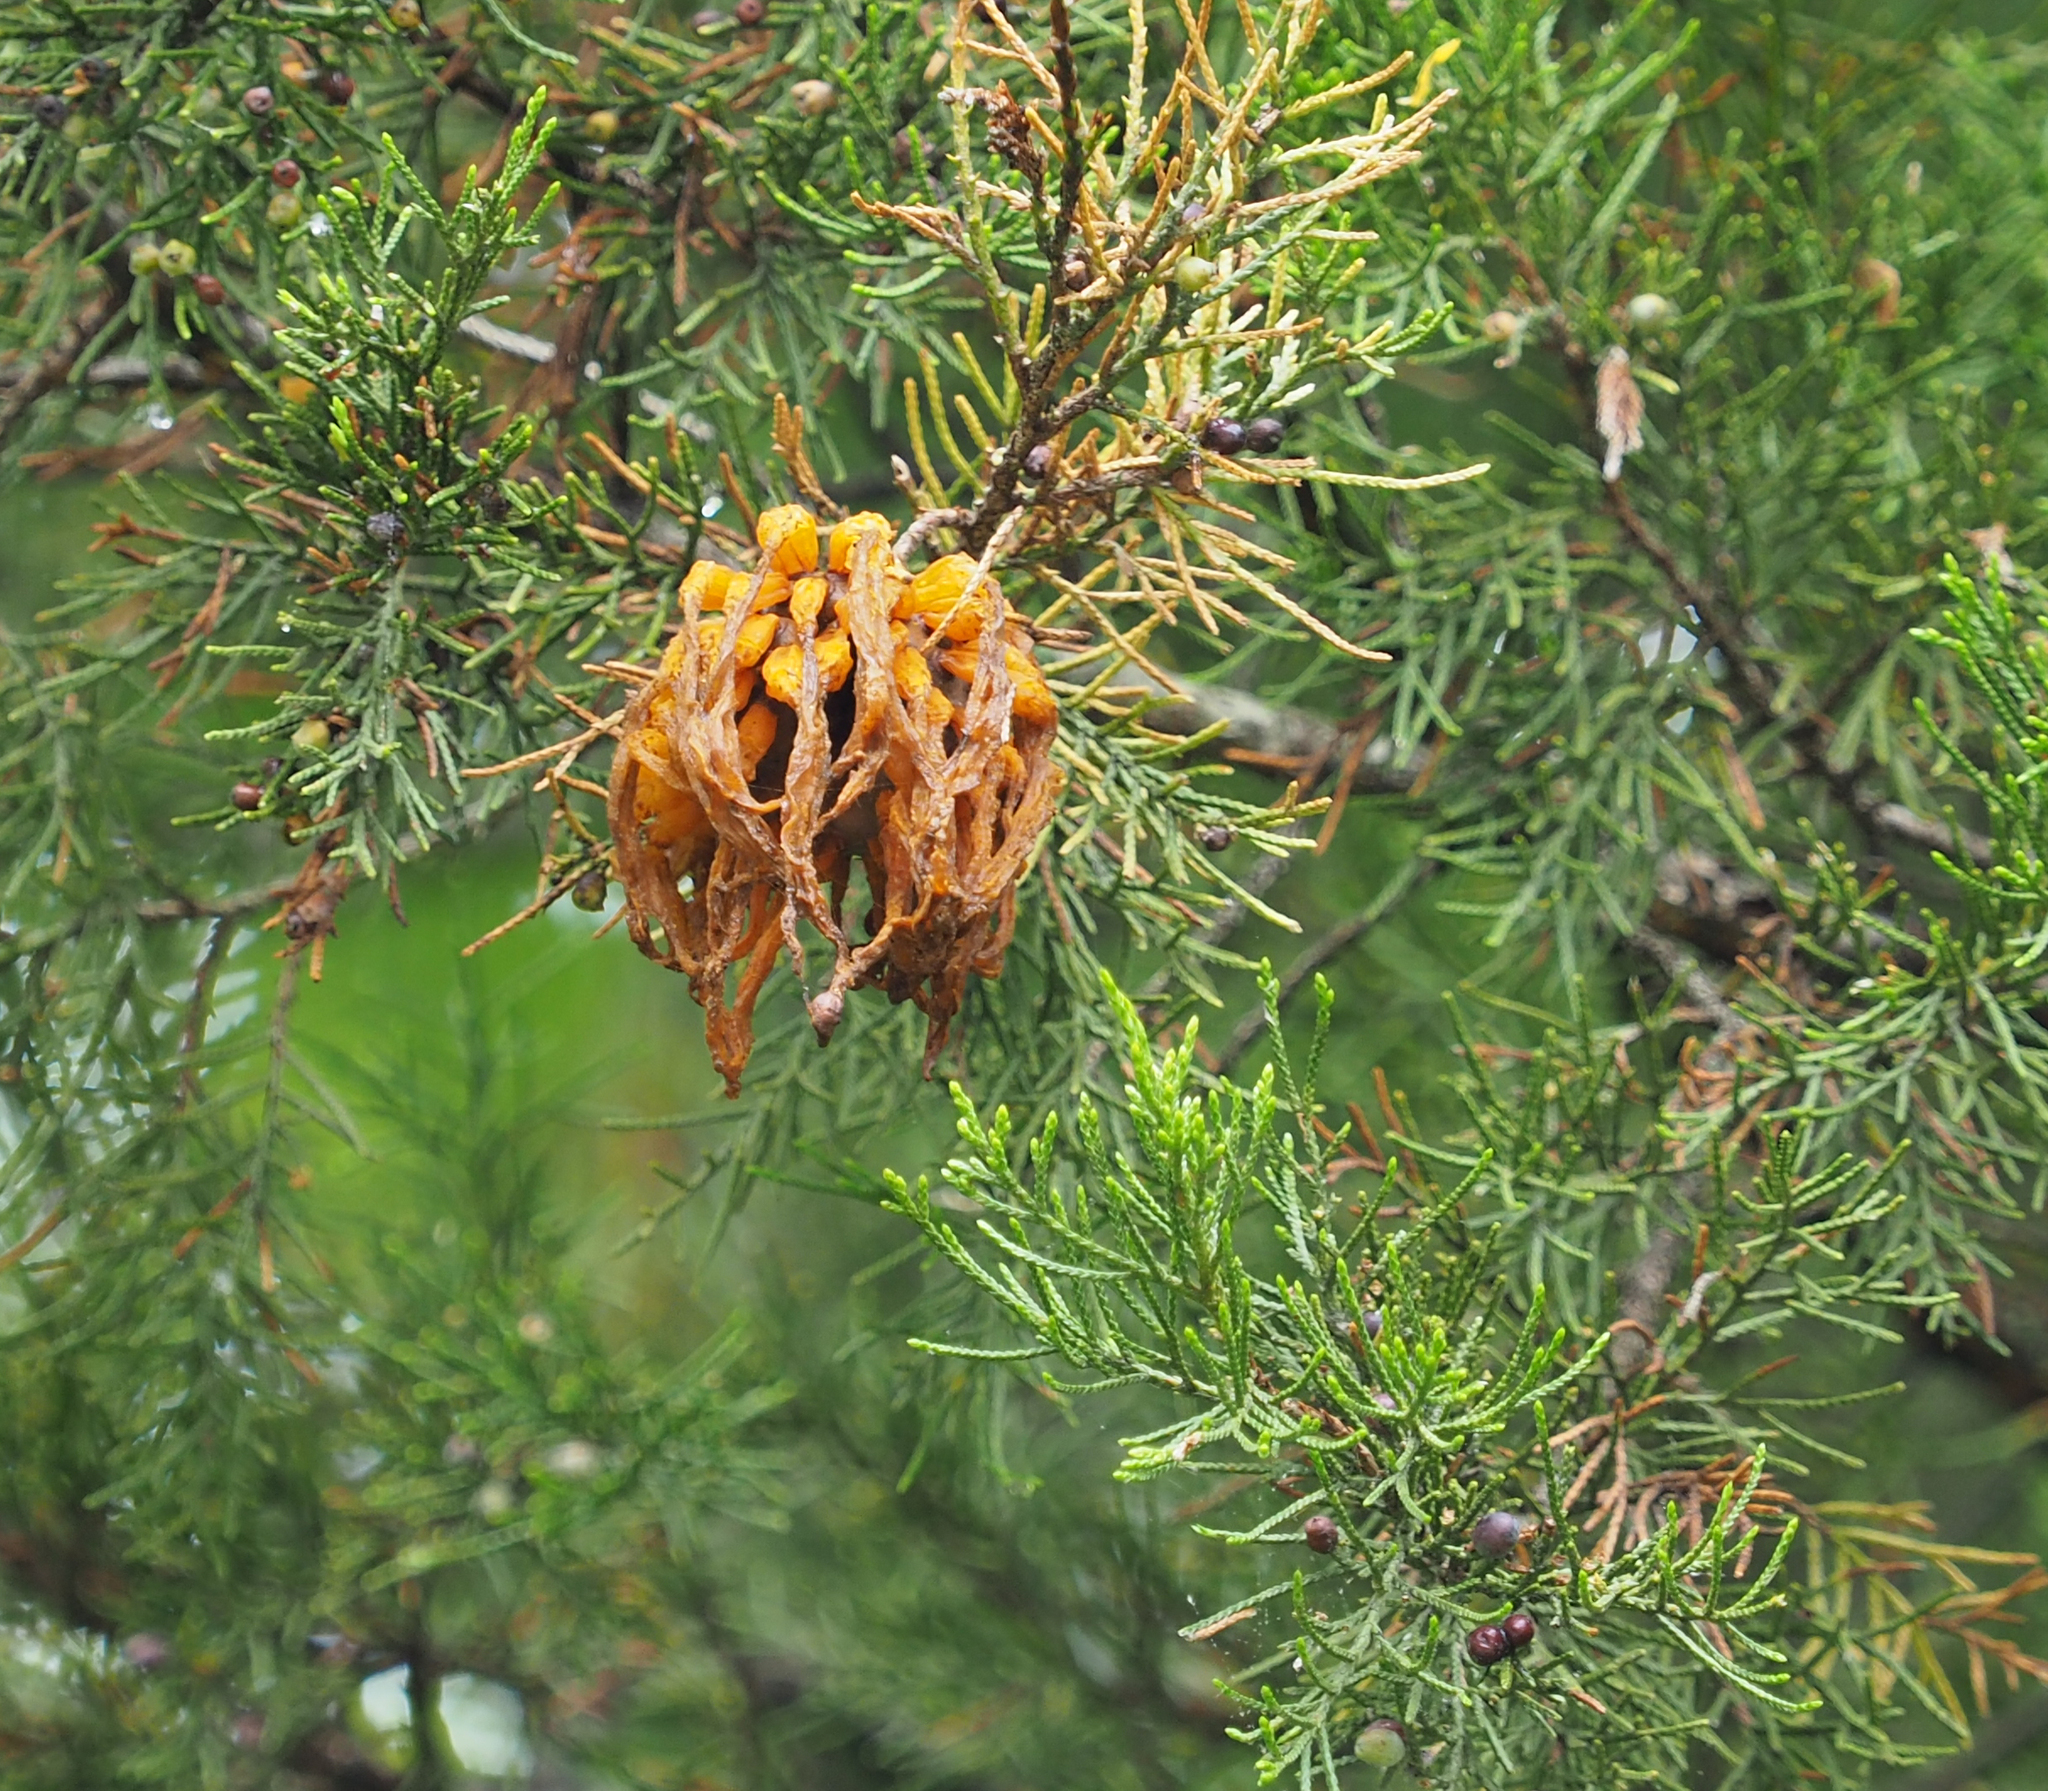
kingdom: Fungi
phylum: Basidiomycota
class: Pucciniomycetes
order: Pucciniales
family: Gymnosporangiaceae
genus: Gymnosporangium
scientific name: Gymnosporangium juniperi-virginianae
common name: Juniper-apple rust
